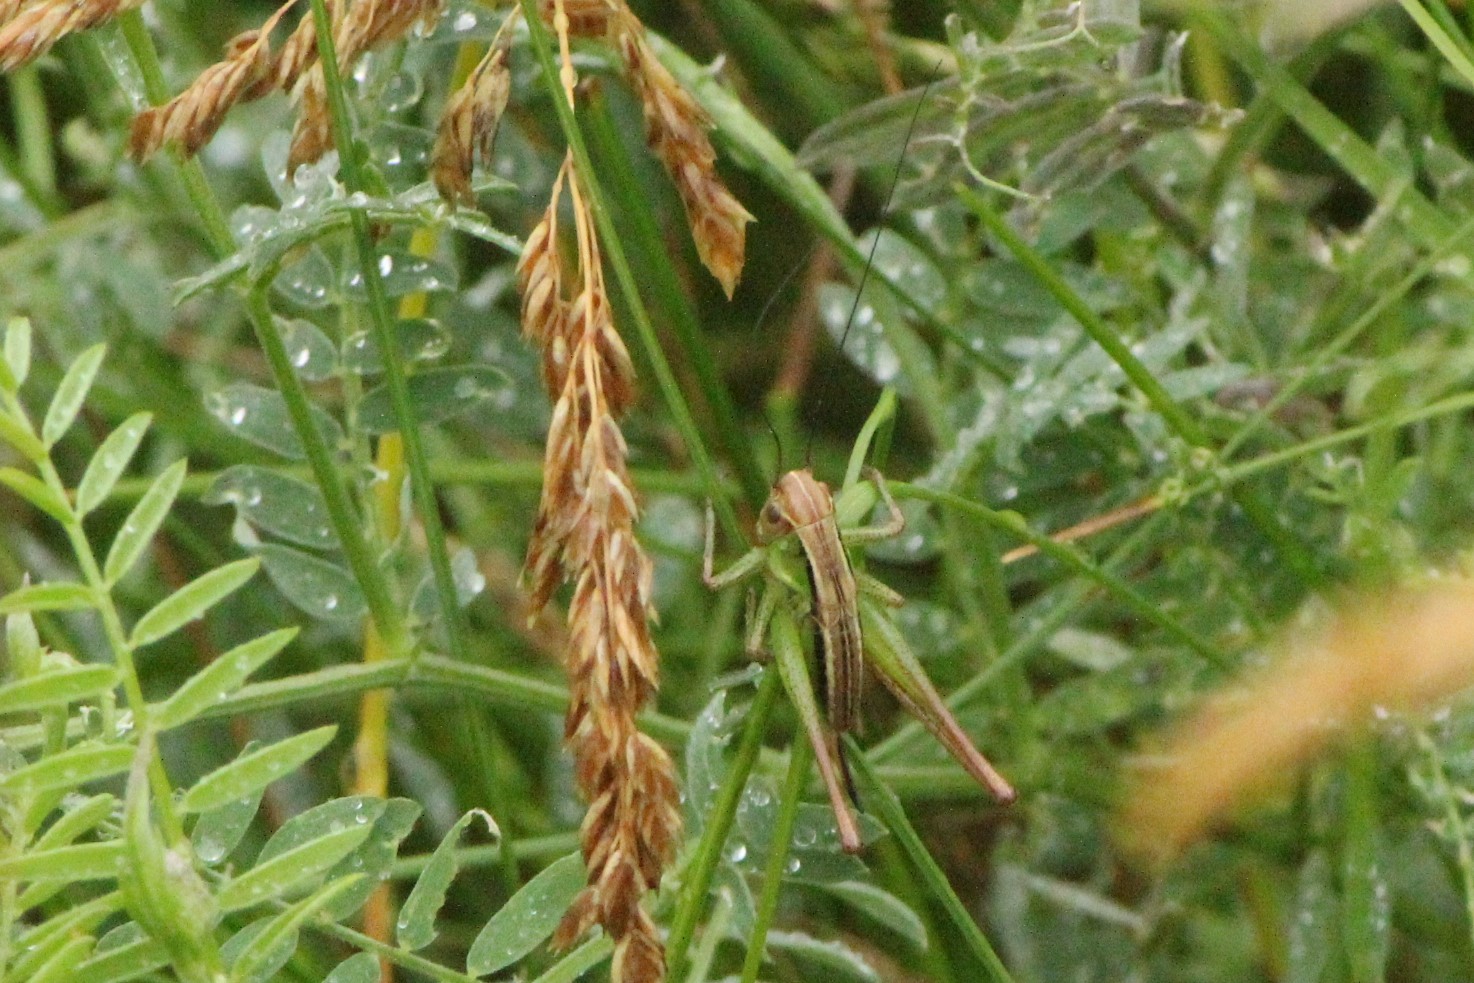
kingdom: Animalia
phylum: Arthropoda
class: Insecta
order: Orthoptera
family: Tettigoniidae
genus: Roeseliana
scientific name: Roeseliana roeselii
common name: Roesel's bush cricket
